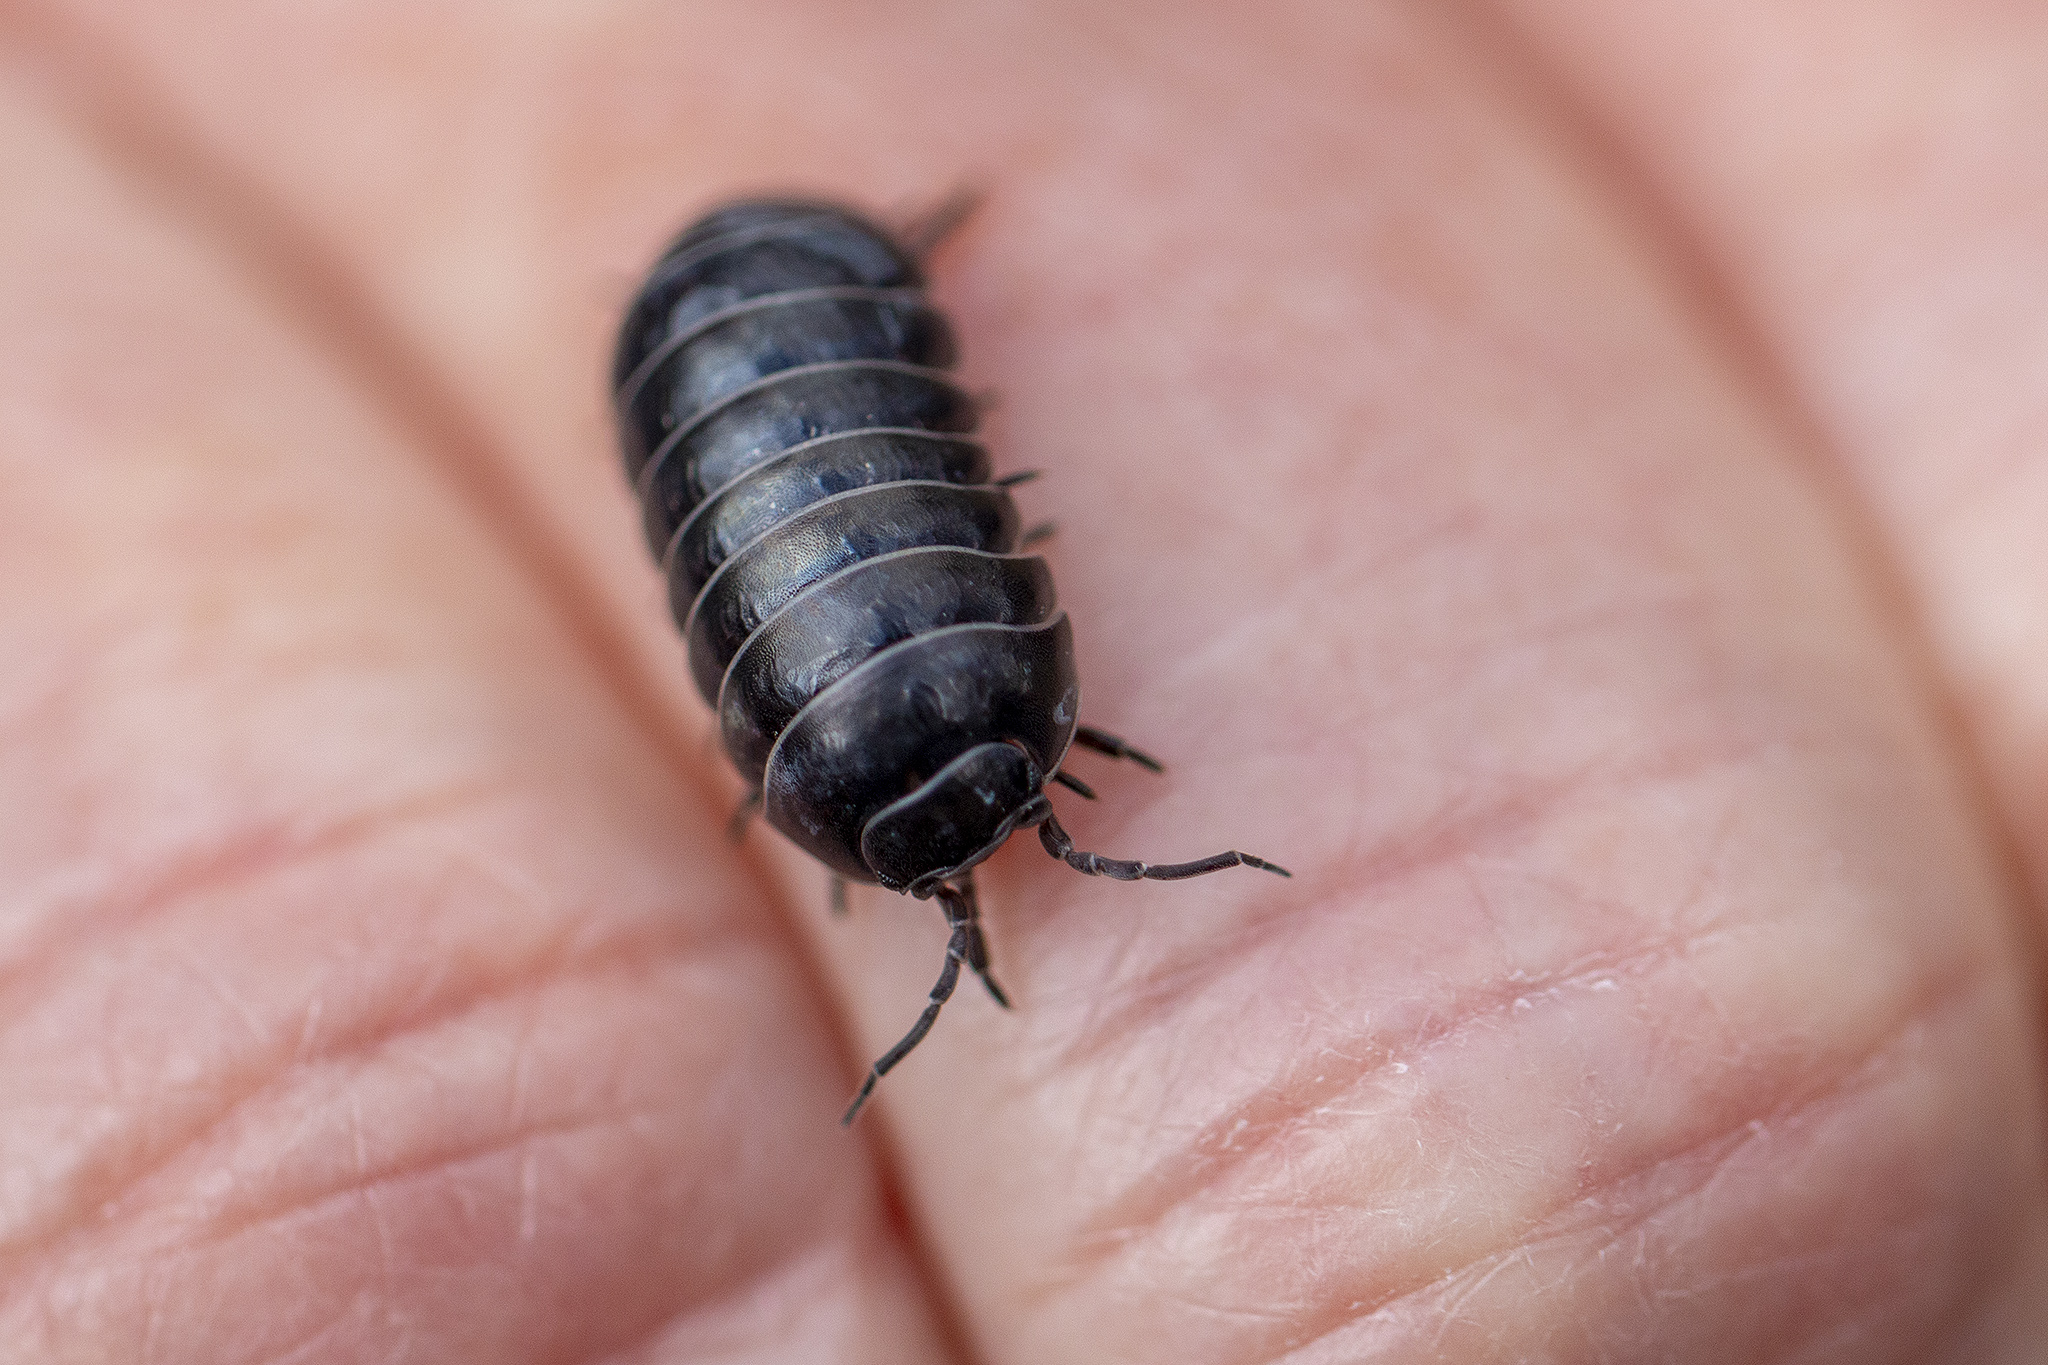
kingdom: Animalia
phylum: Arthropoda
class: Malacostraca
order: Isopoda
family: Armadillidiidae
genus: Armadillidium
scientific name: Armadillidium vulgare
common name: Common pill woodlouse
